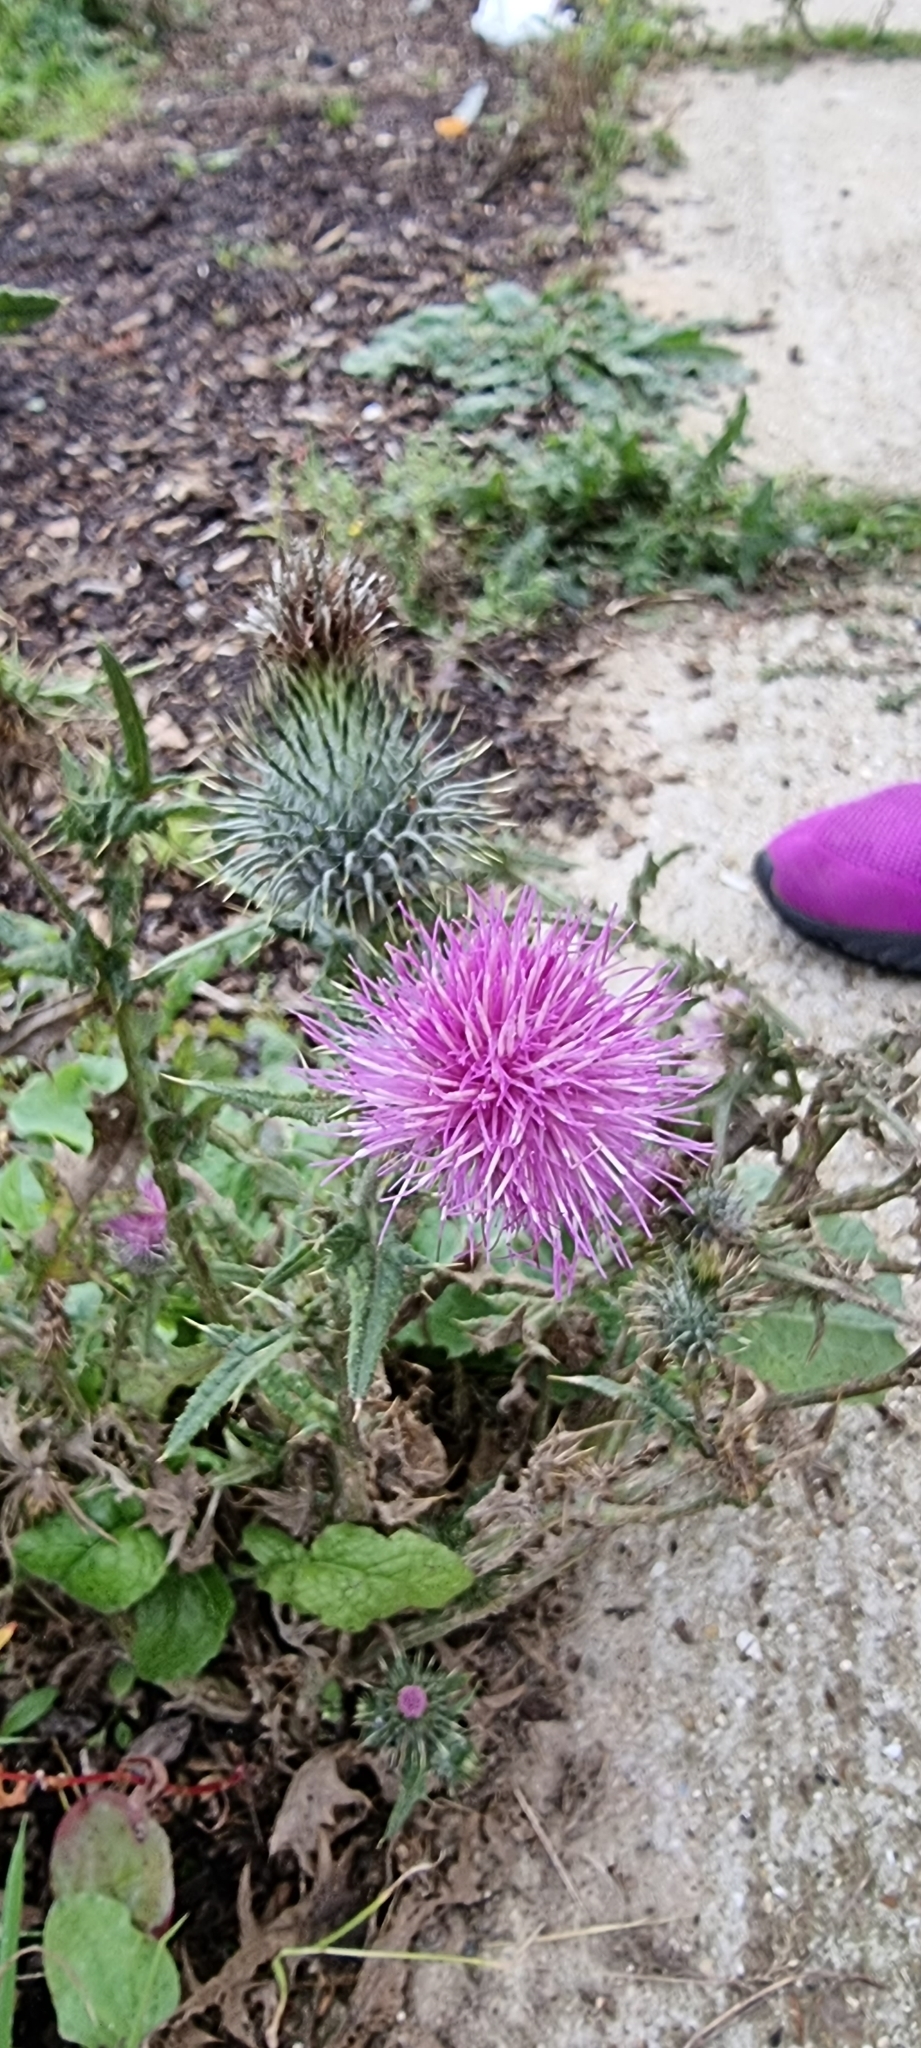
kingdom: Plantae
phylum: Tracheophyta
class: Magnoliopsida
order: Asterales
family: Asteraceae
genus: Cirsium
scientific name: Cirsium vulgare
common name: Bull thistle
